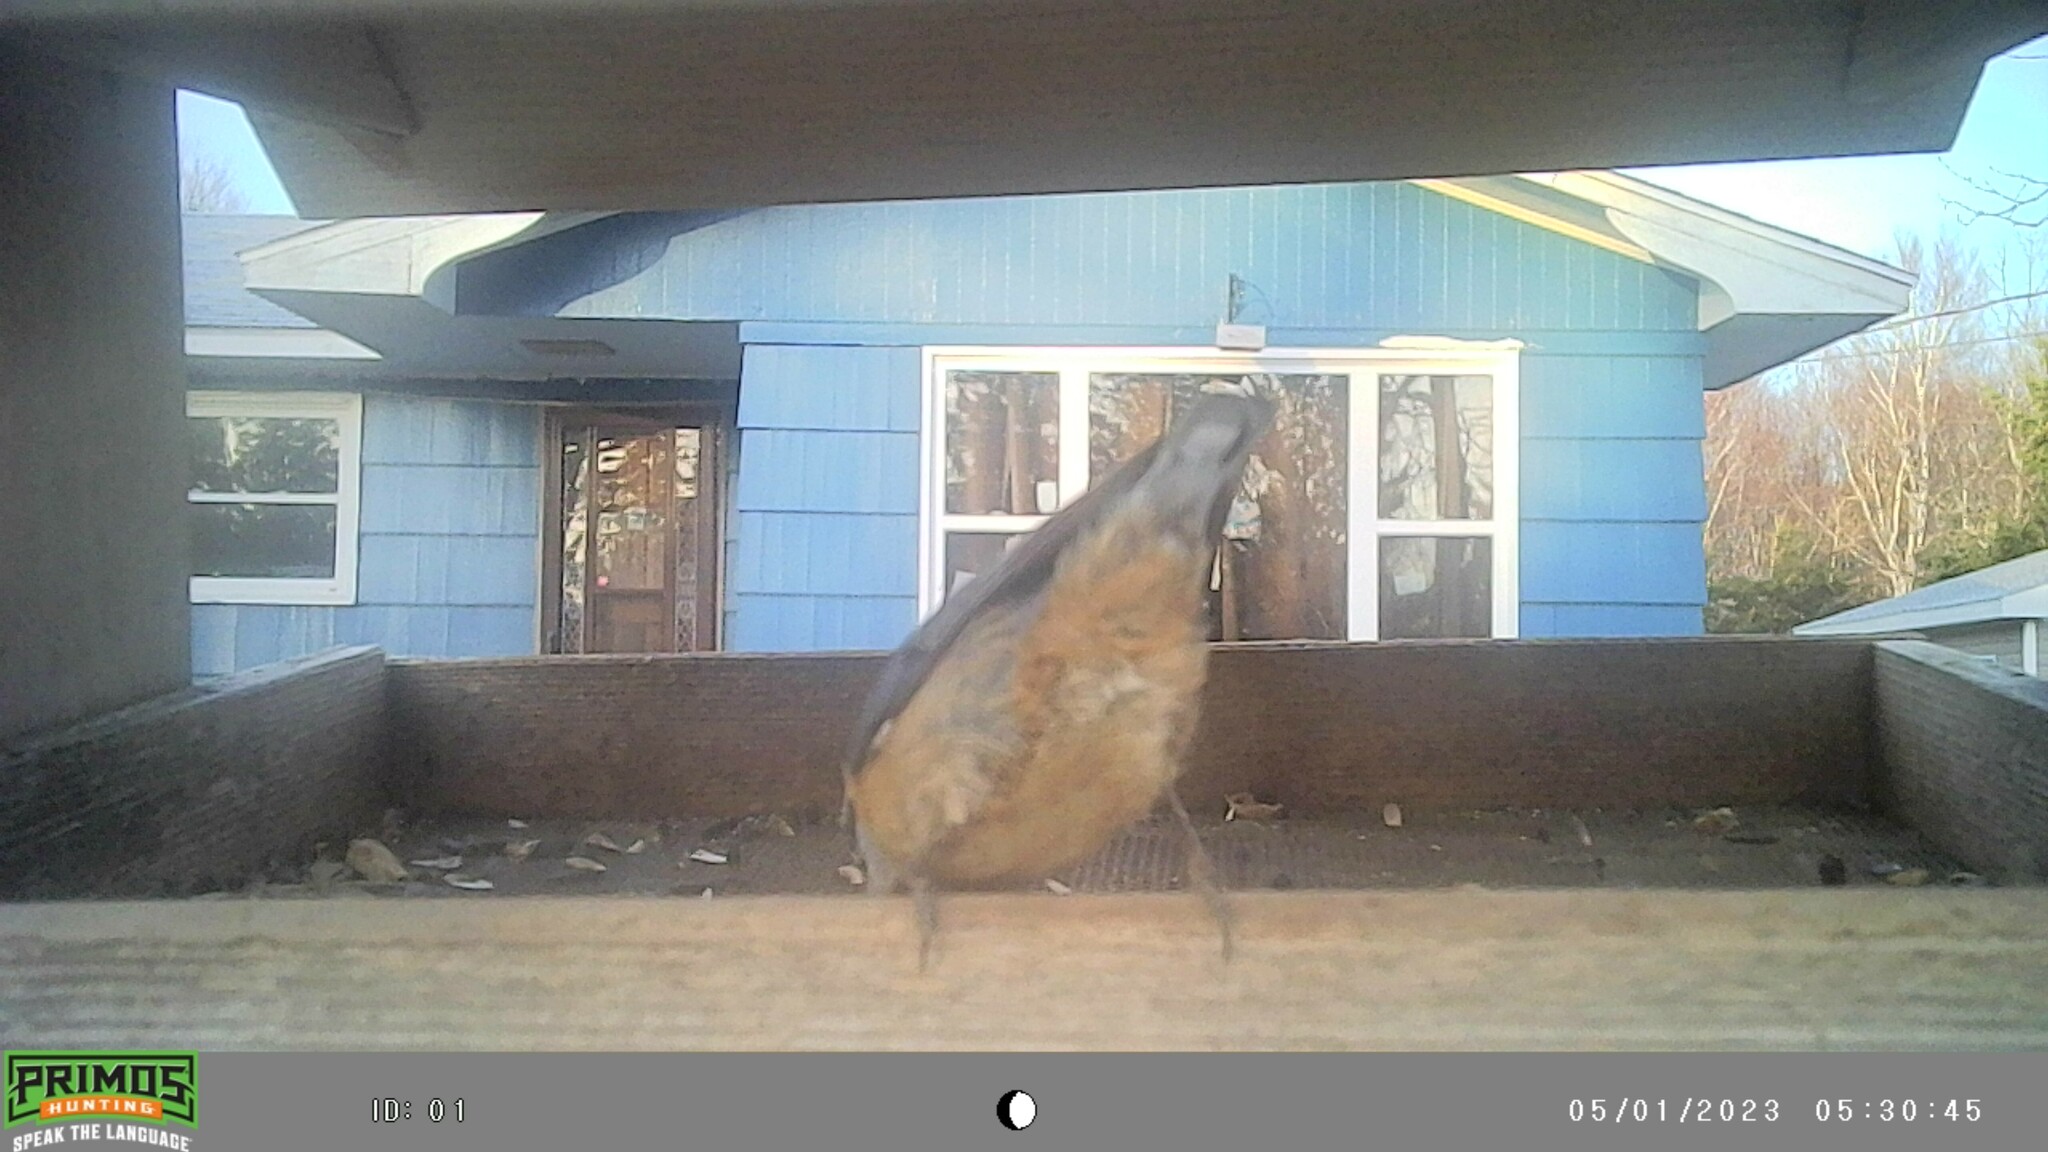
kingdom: Animalia
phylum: Chordata
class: Aves
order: Passeriformes
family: Sittidae
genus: Sitta
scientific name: Sitta canadensis
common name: Red-breasted nuthatch
